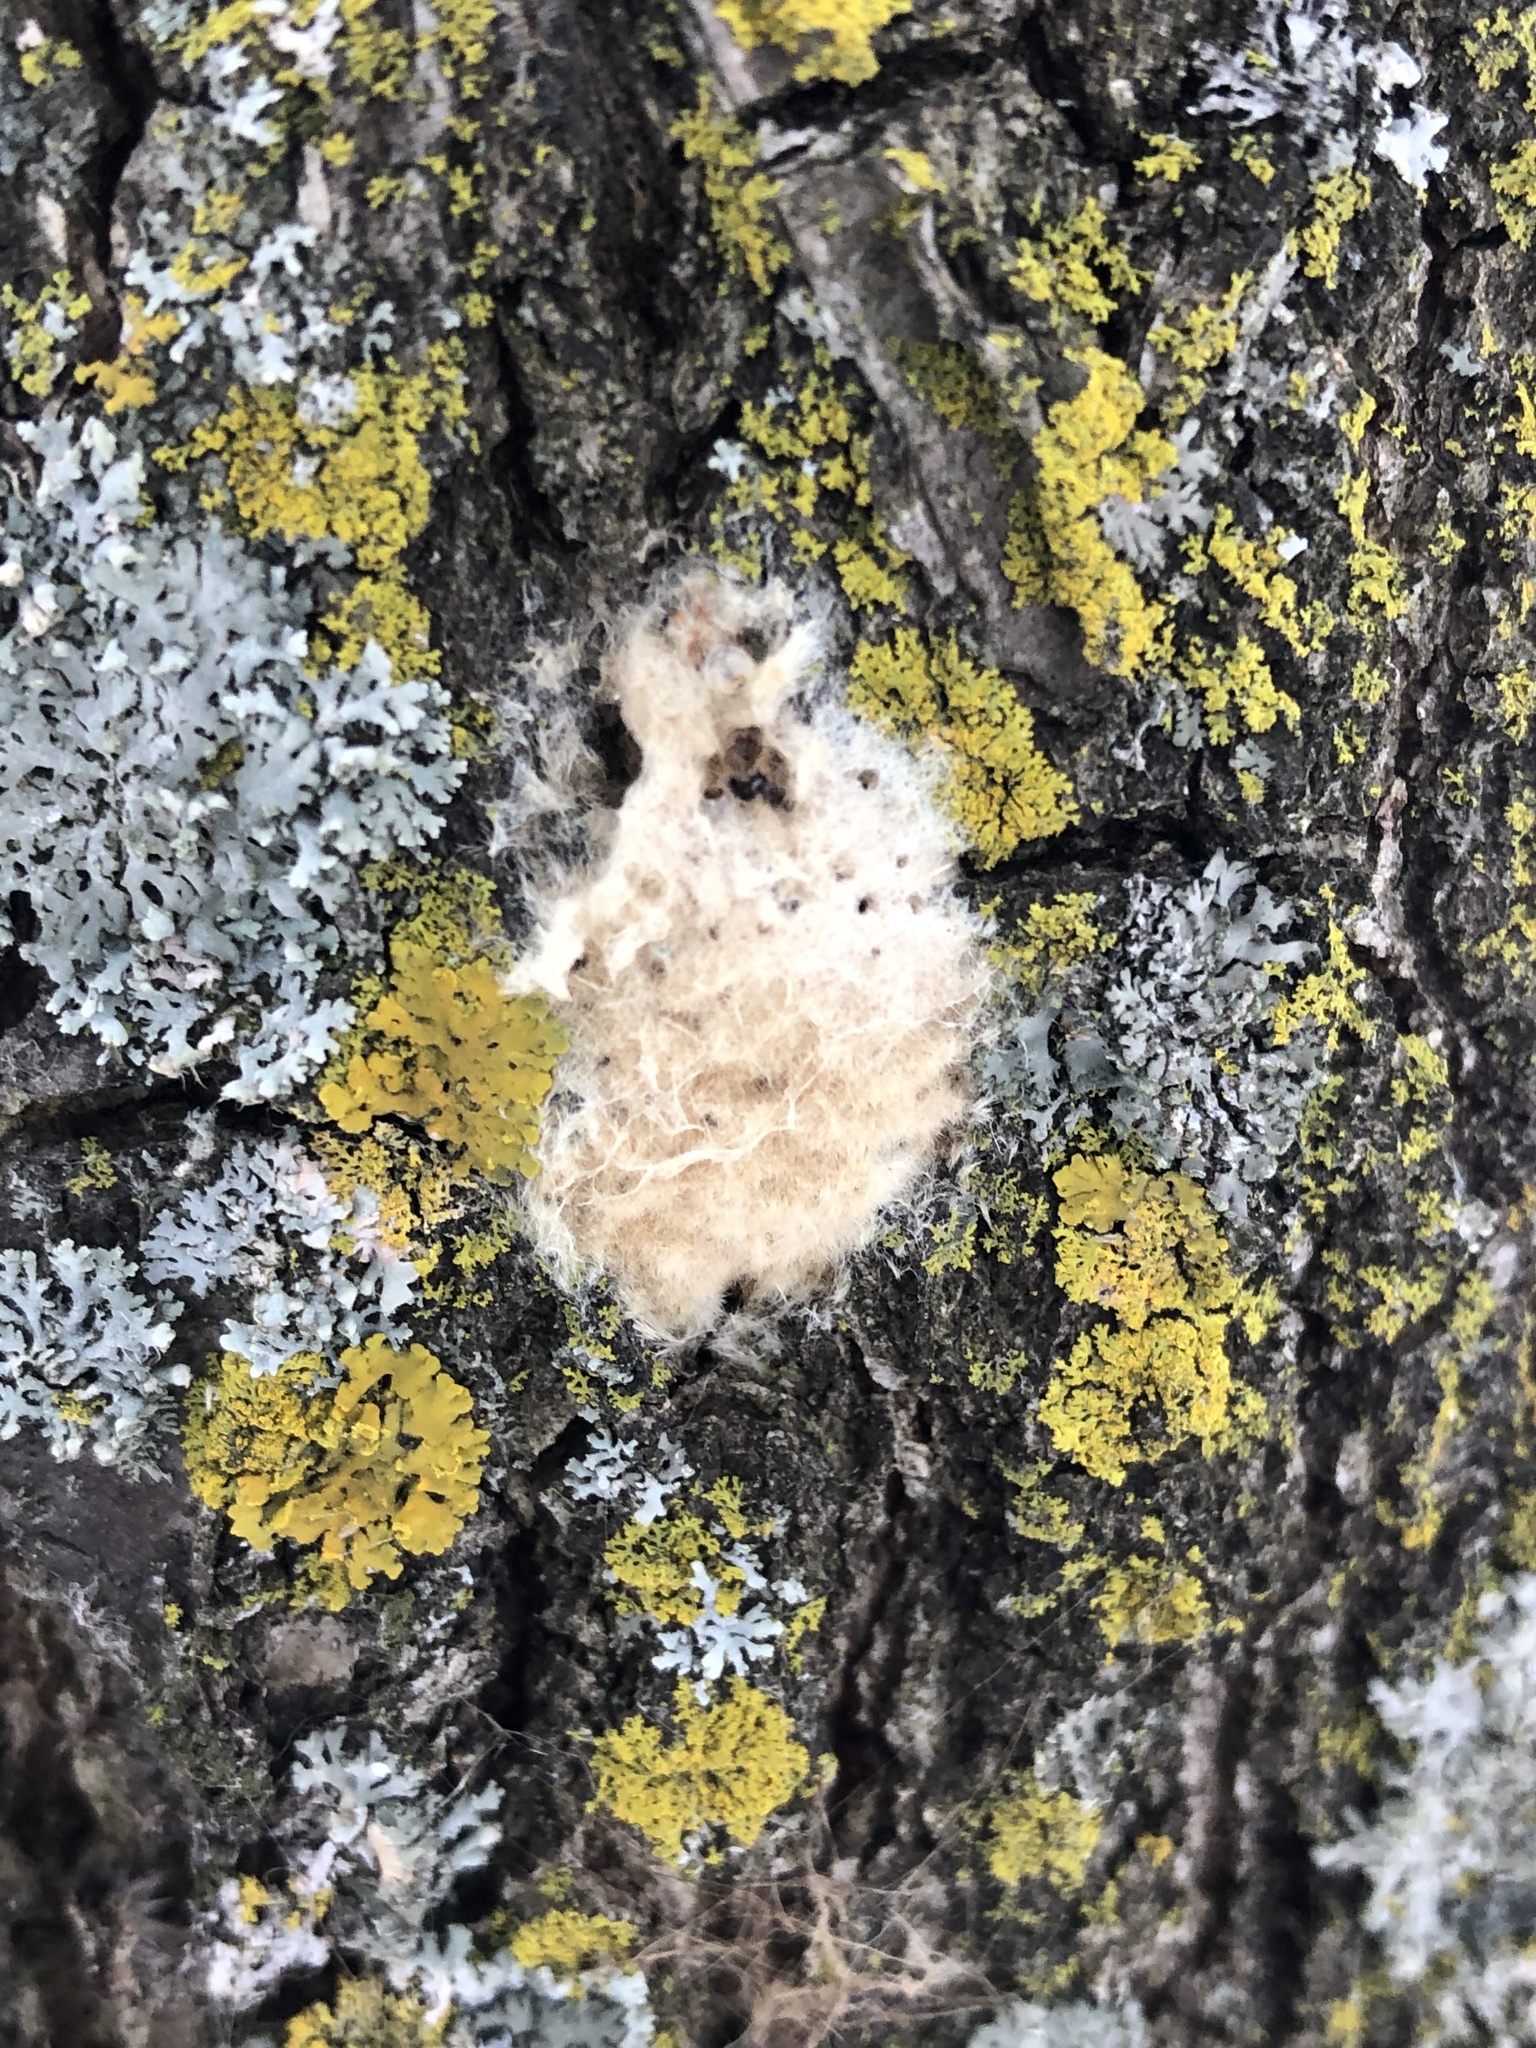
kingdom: Animalia
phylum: Arthropoda
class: Insecta
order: Lepidoptera
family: Erebidae
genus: Lymantria
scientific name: Lymantria dispar
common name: Gypsy moth
